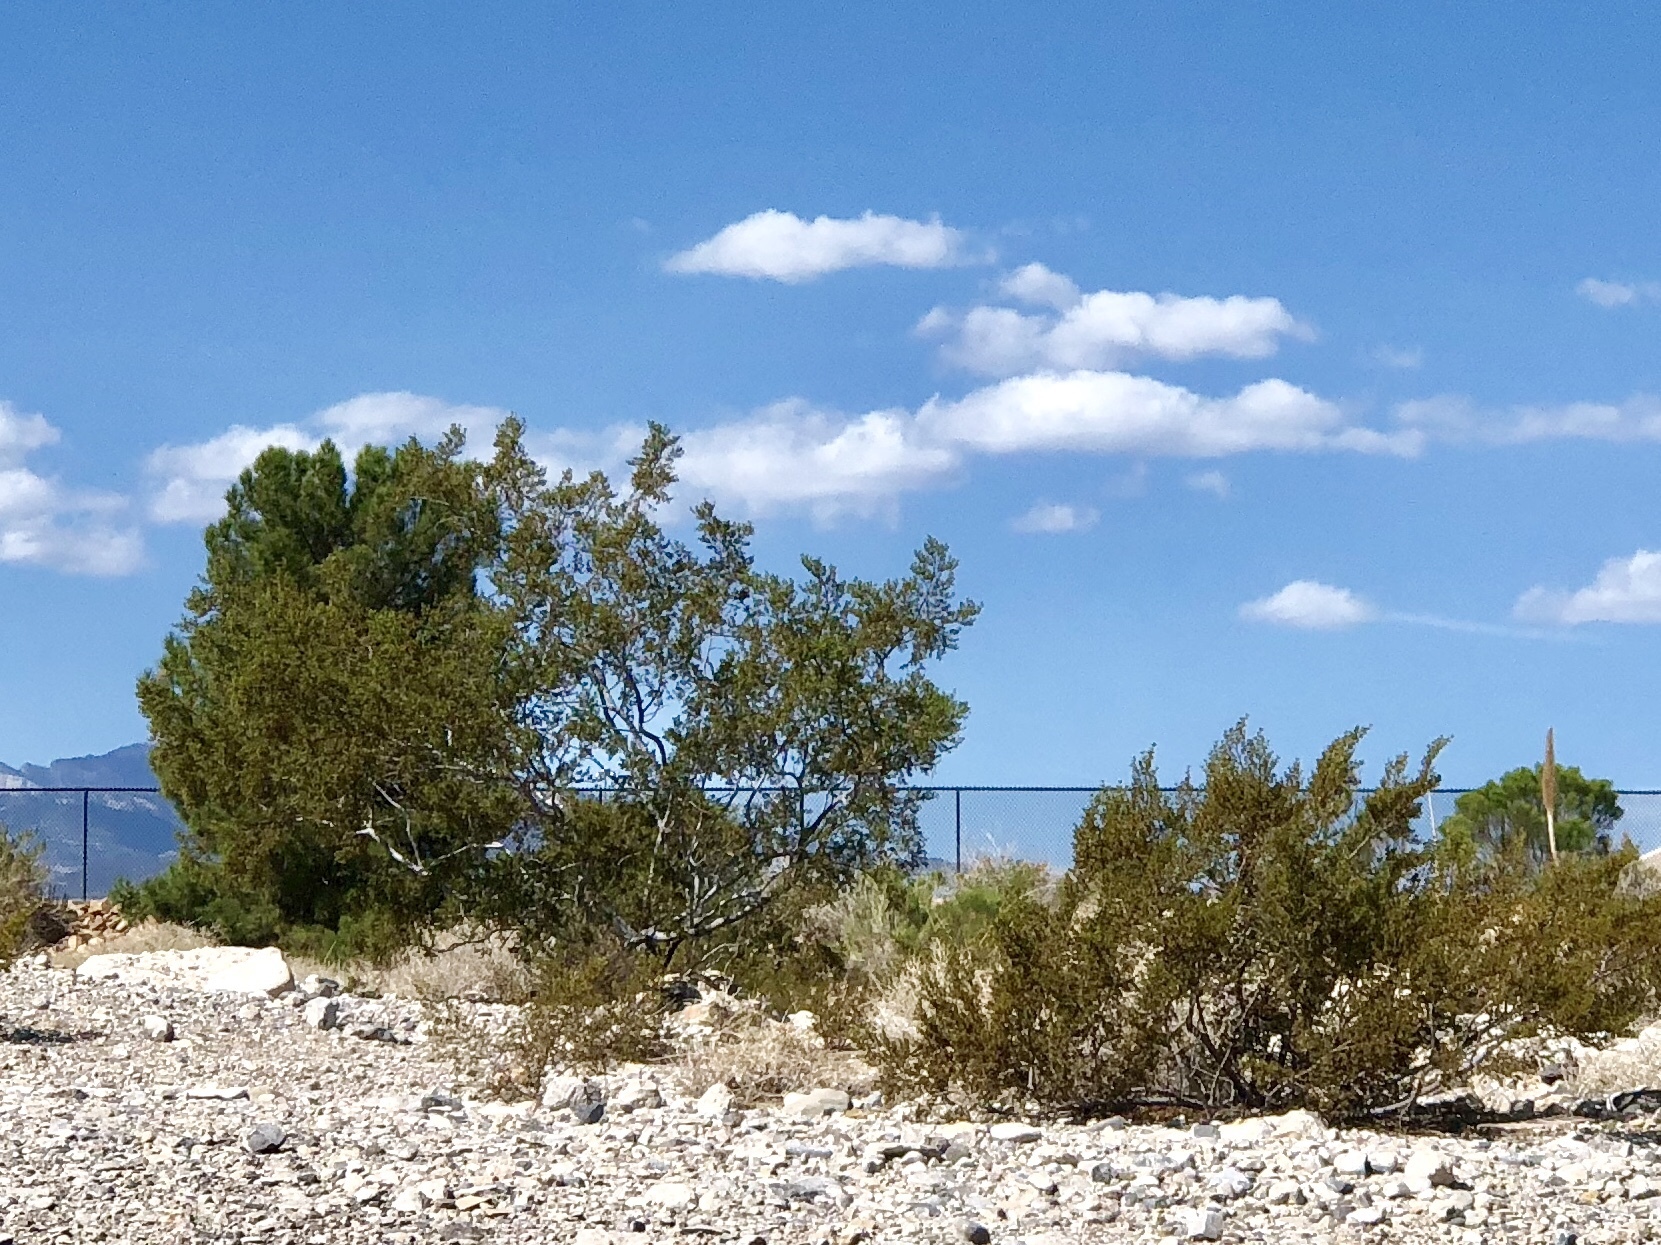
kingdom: Plantae
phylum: Tracheophyta
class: Magnoliopsida
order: Zygophyllales
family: Zygophyllaceae
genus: Larrea
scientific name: Larrea tridentata
